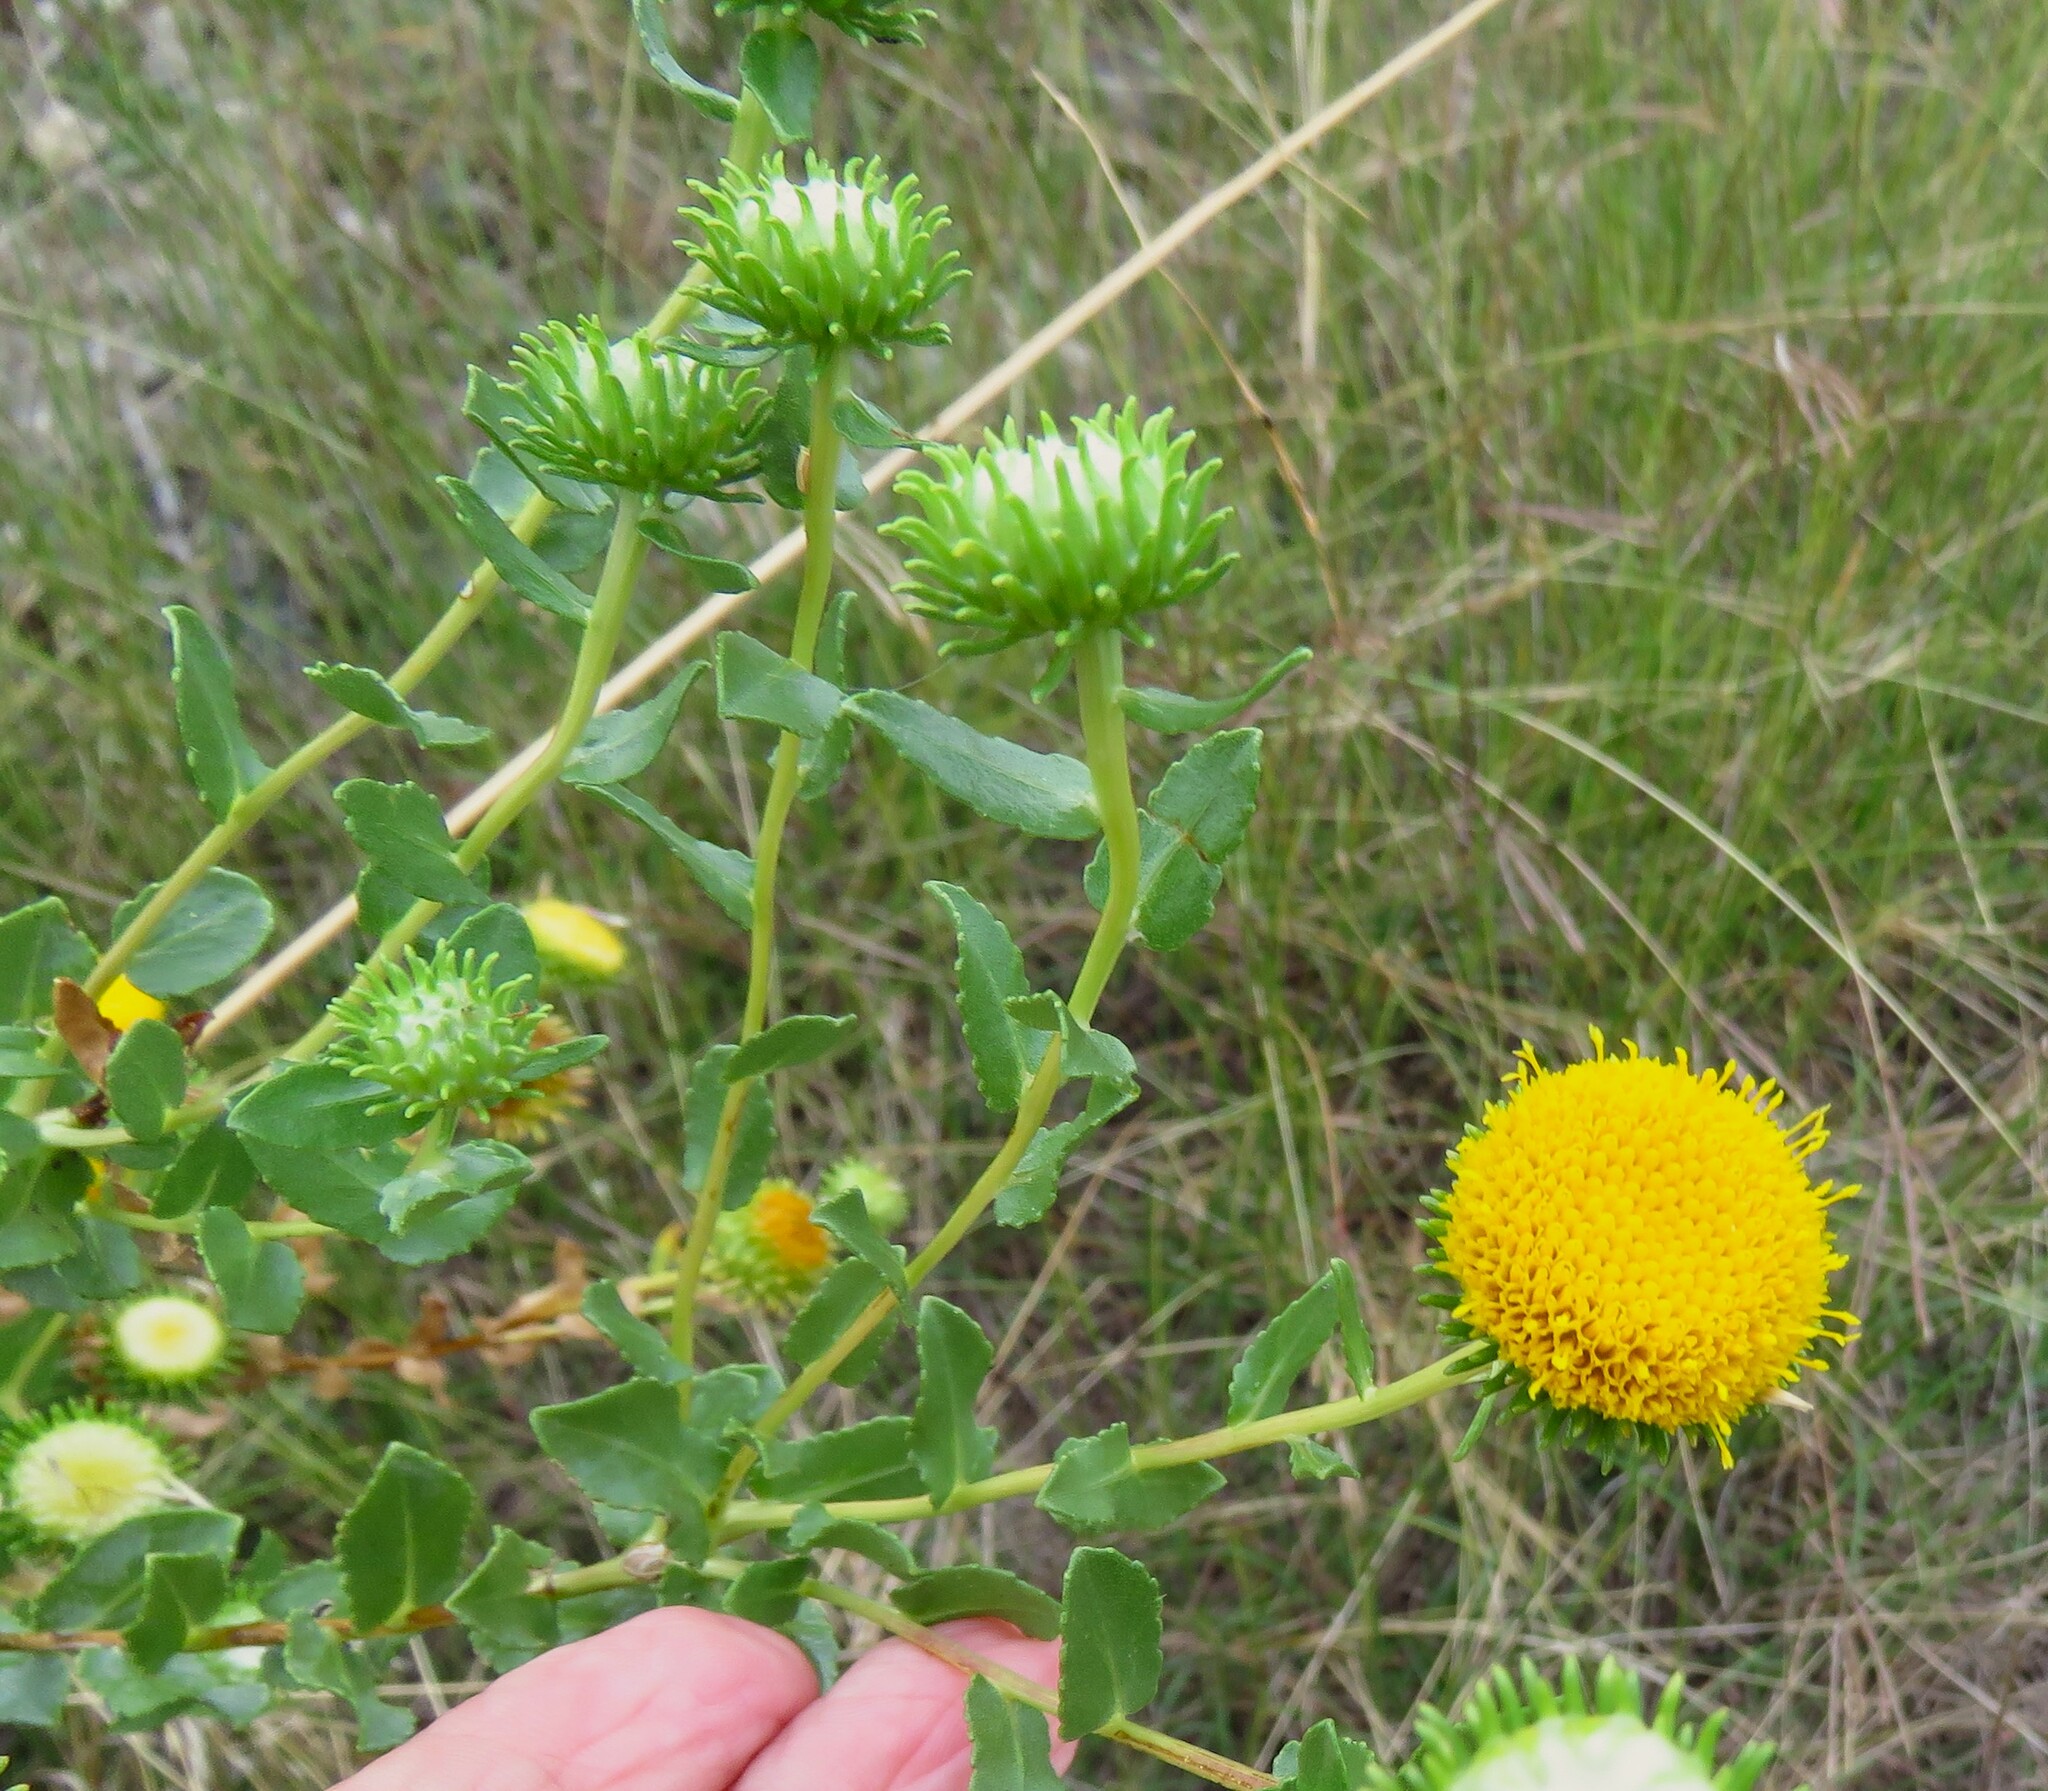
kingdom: Plantae
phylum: Tracheophyta
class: Magnoliopsida
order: Asterales
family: Asteraceae
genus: Grindelia
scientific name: Grindelia nuda
